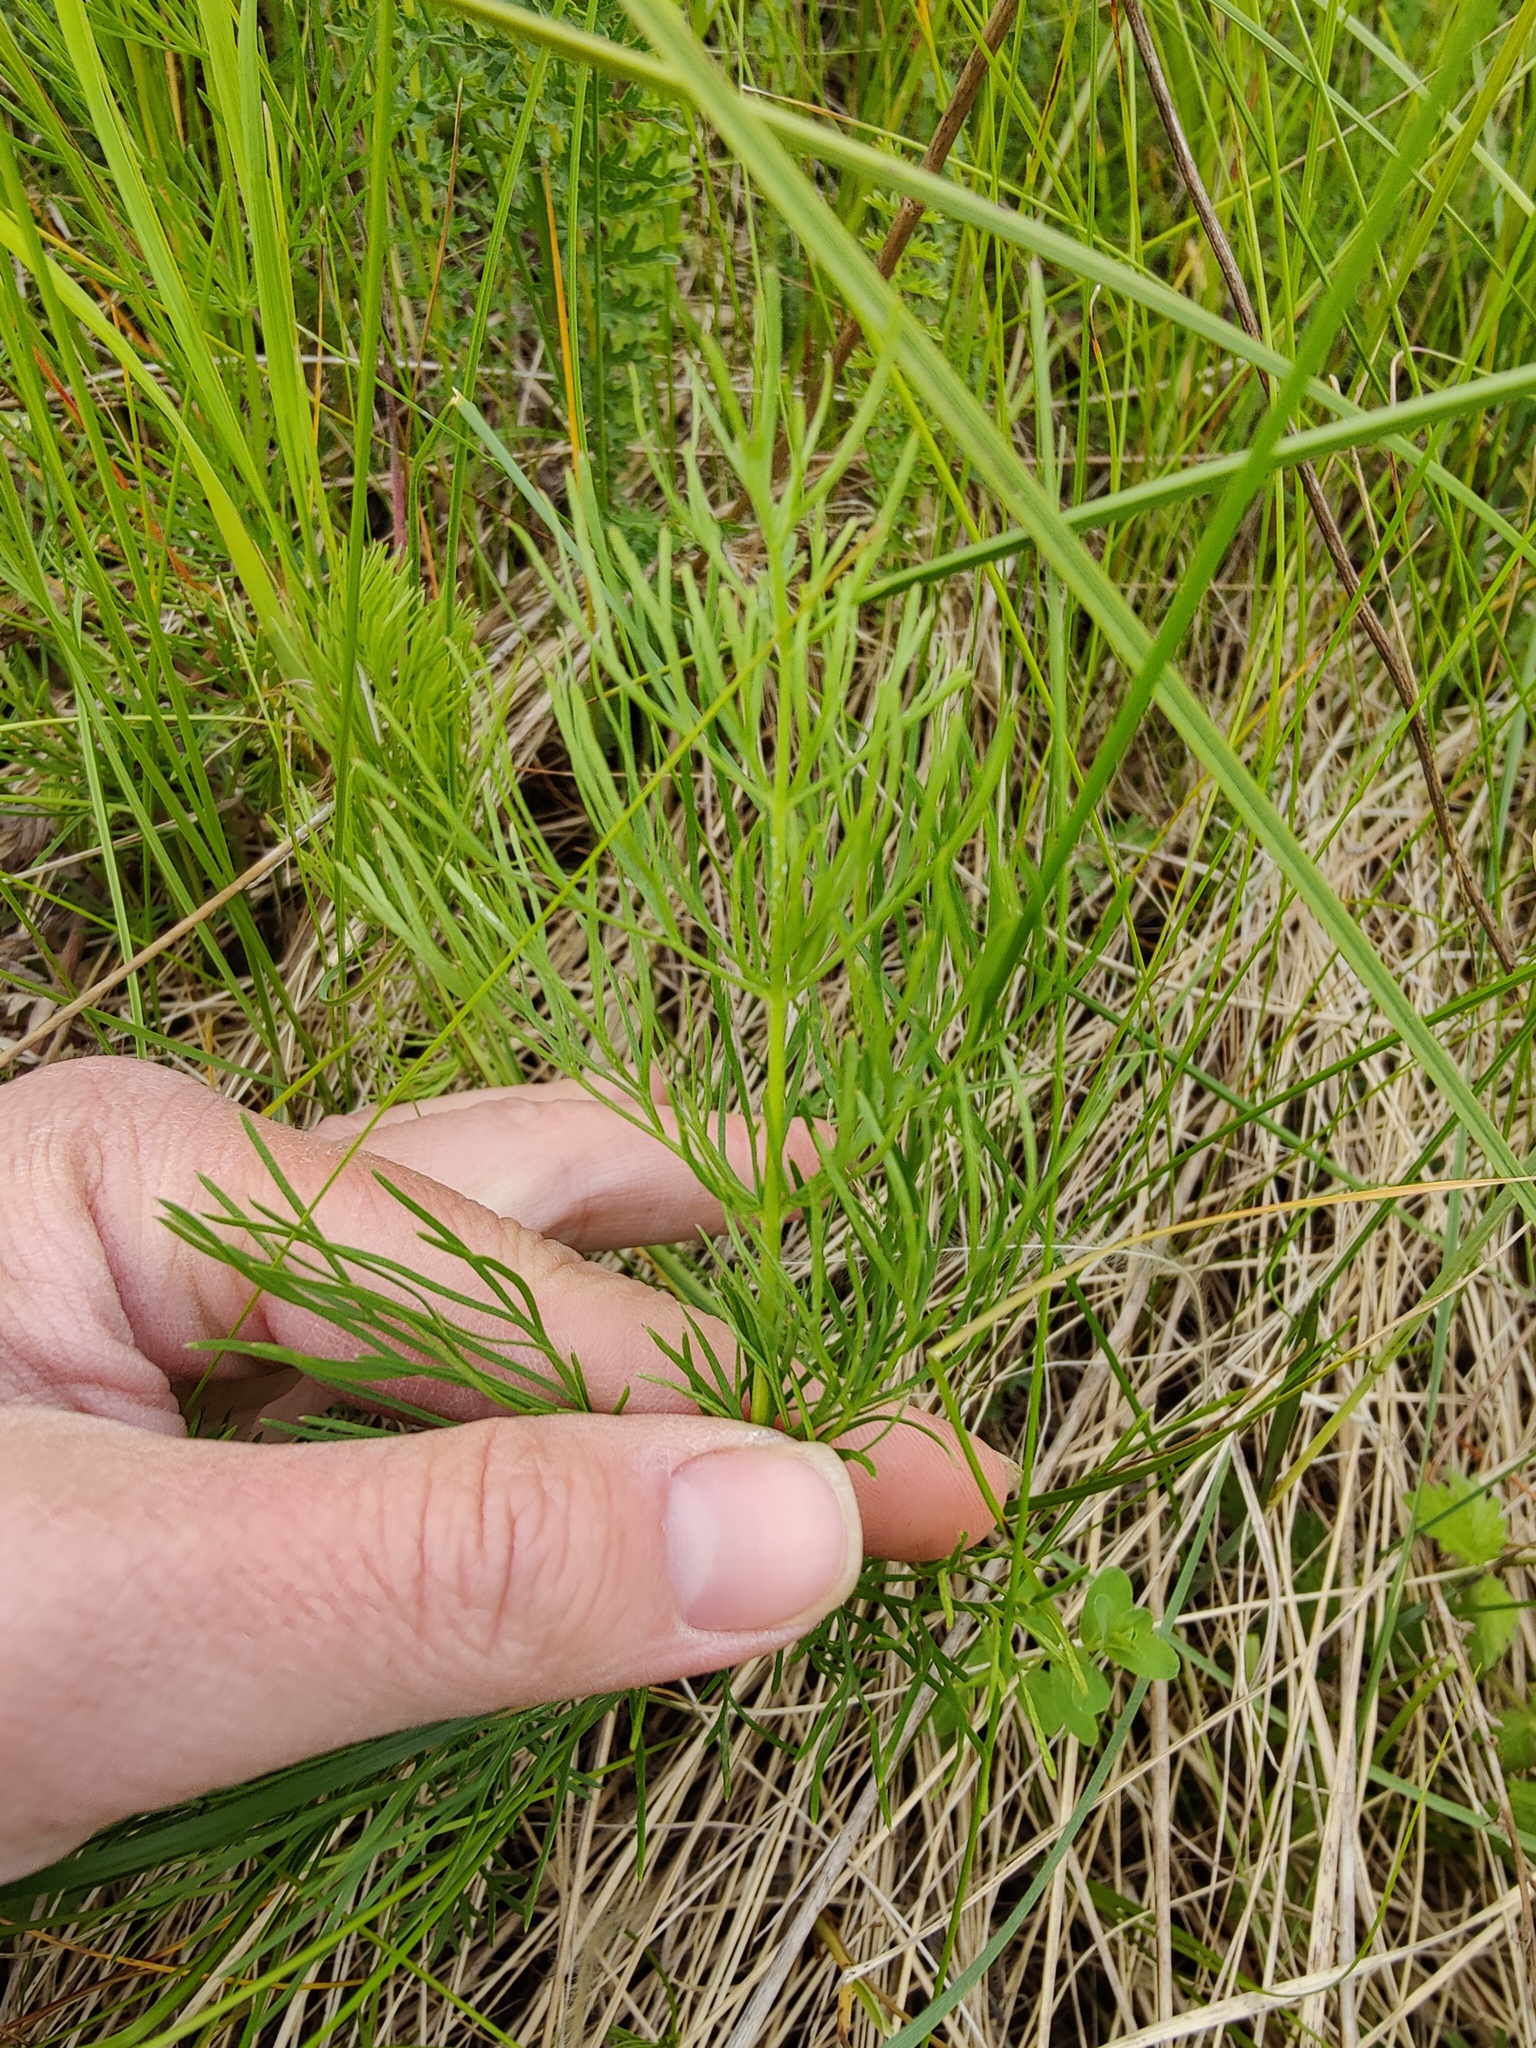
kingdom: Plantae
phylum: Tracheophyta
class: Magnoliopsida
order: Ranunculales
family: Ranunculaceae
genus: Adonis
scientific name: Adonis vernalis
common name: Yellow pheasants-eye
